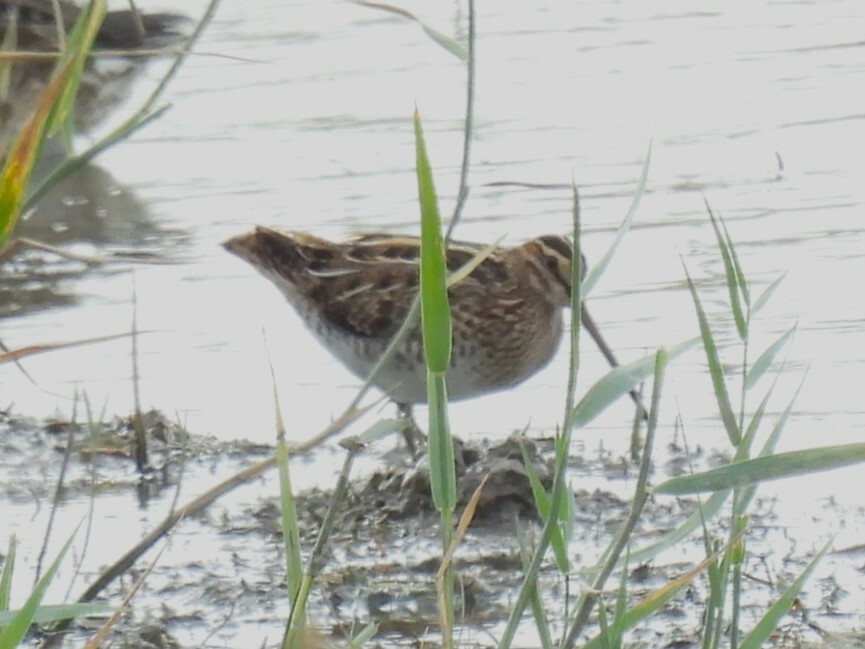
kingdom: Animalia
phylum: Chordata
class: Aves
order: Charadriiformes
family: Scolopacidae
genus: Gallinago
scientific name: Gallinago gallinago
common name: Common snipe
